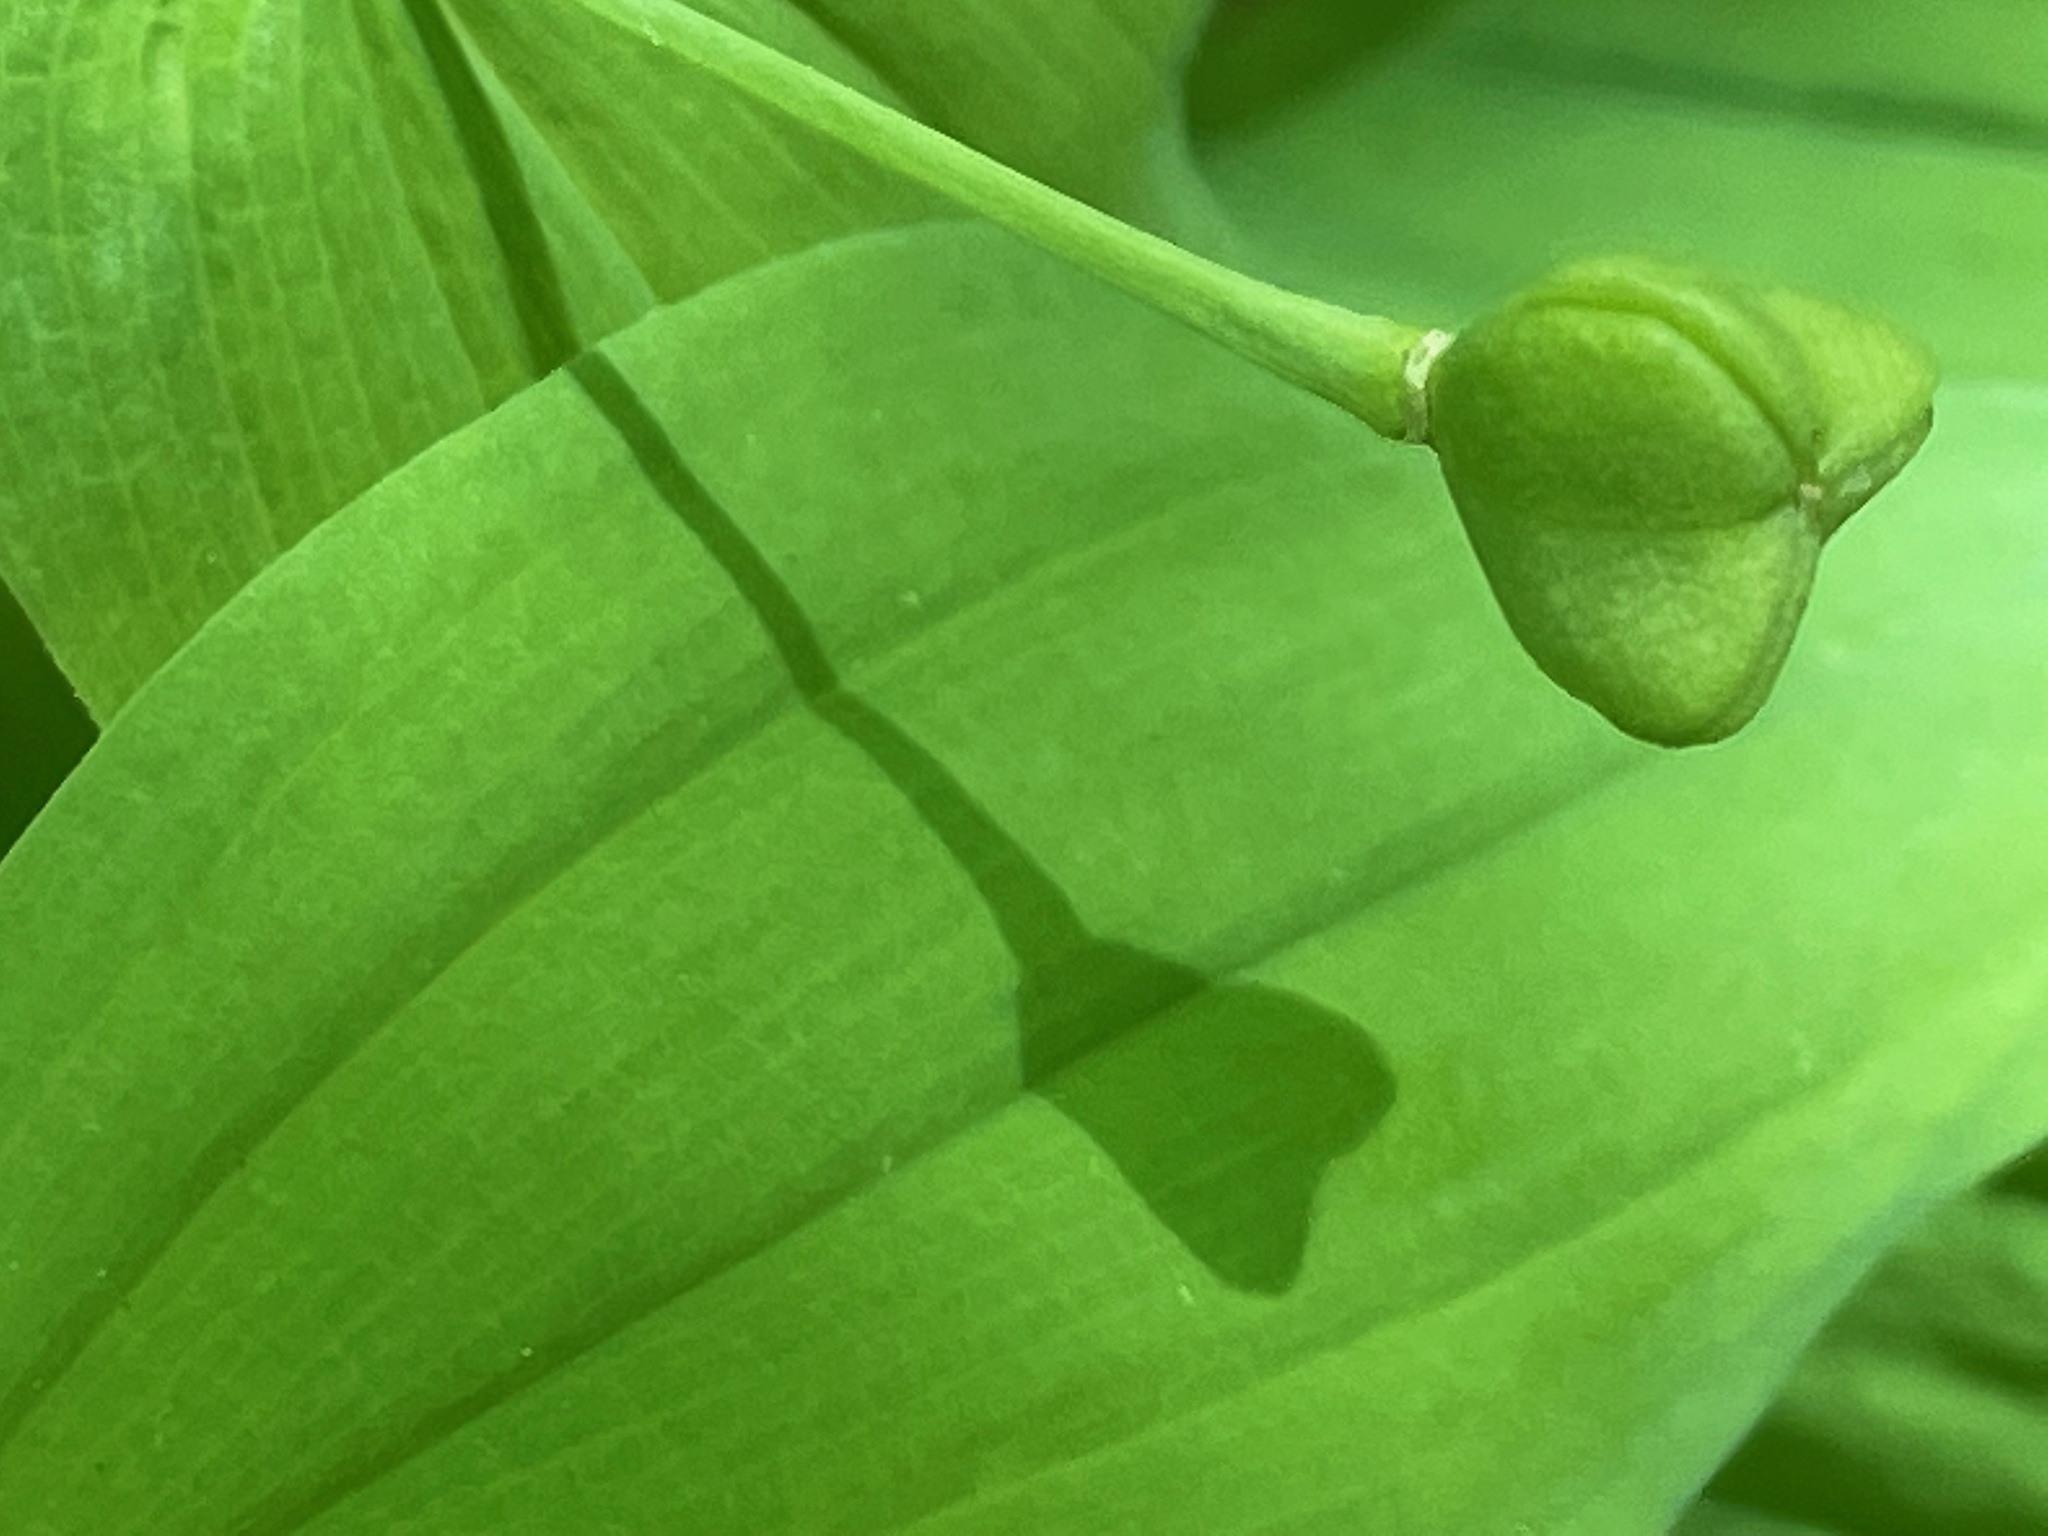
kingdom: Plantae
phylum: Tracheophyta
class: Liliopsida
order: Liliales
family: Colchicaceae
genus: Uvularia
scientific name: Uvularia grandiflora
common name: Bellwort
